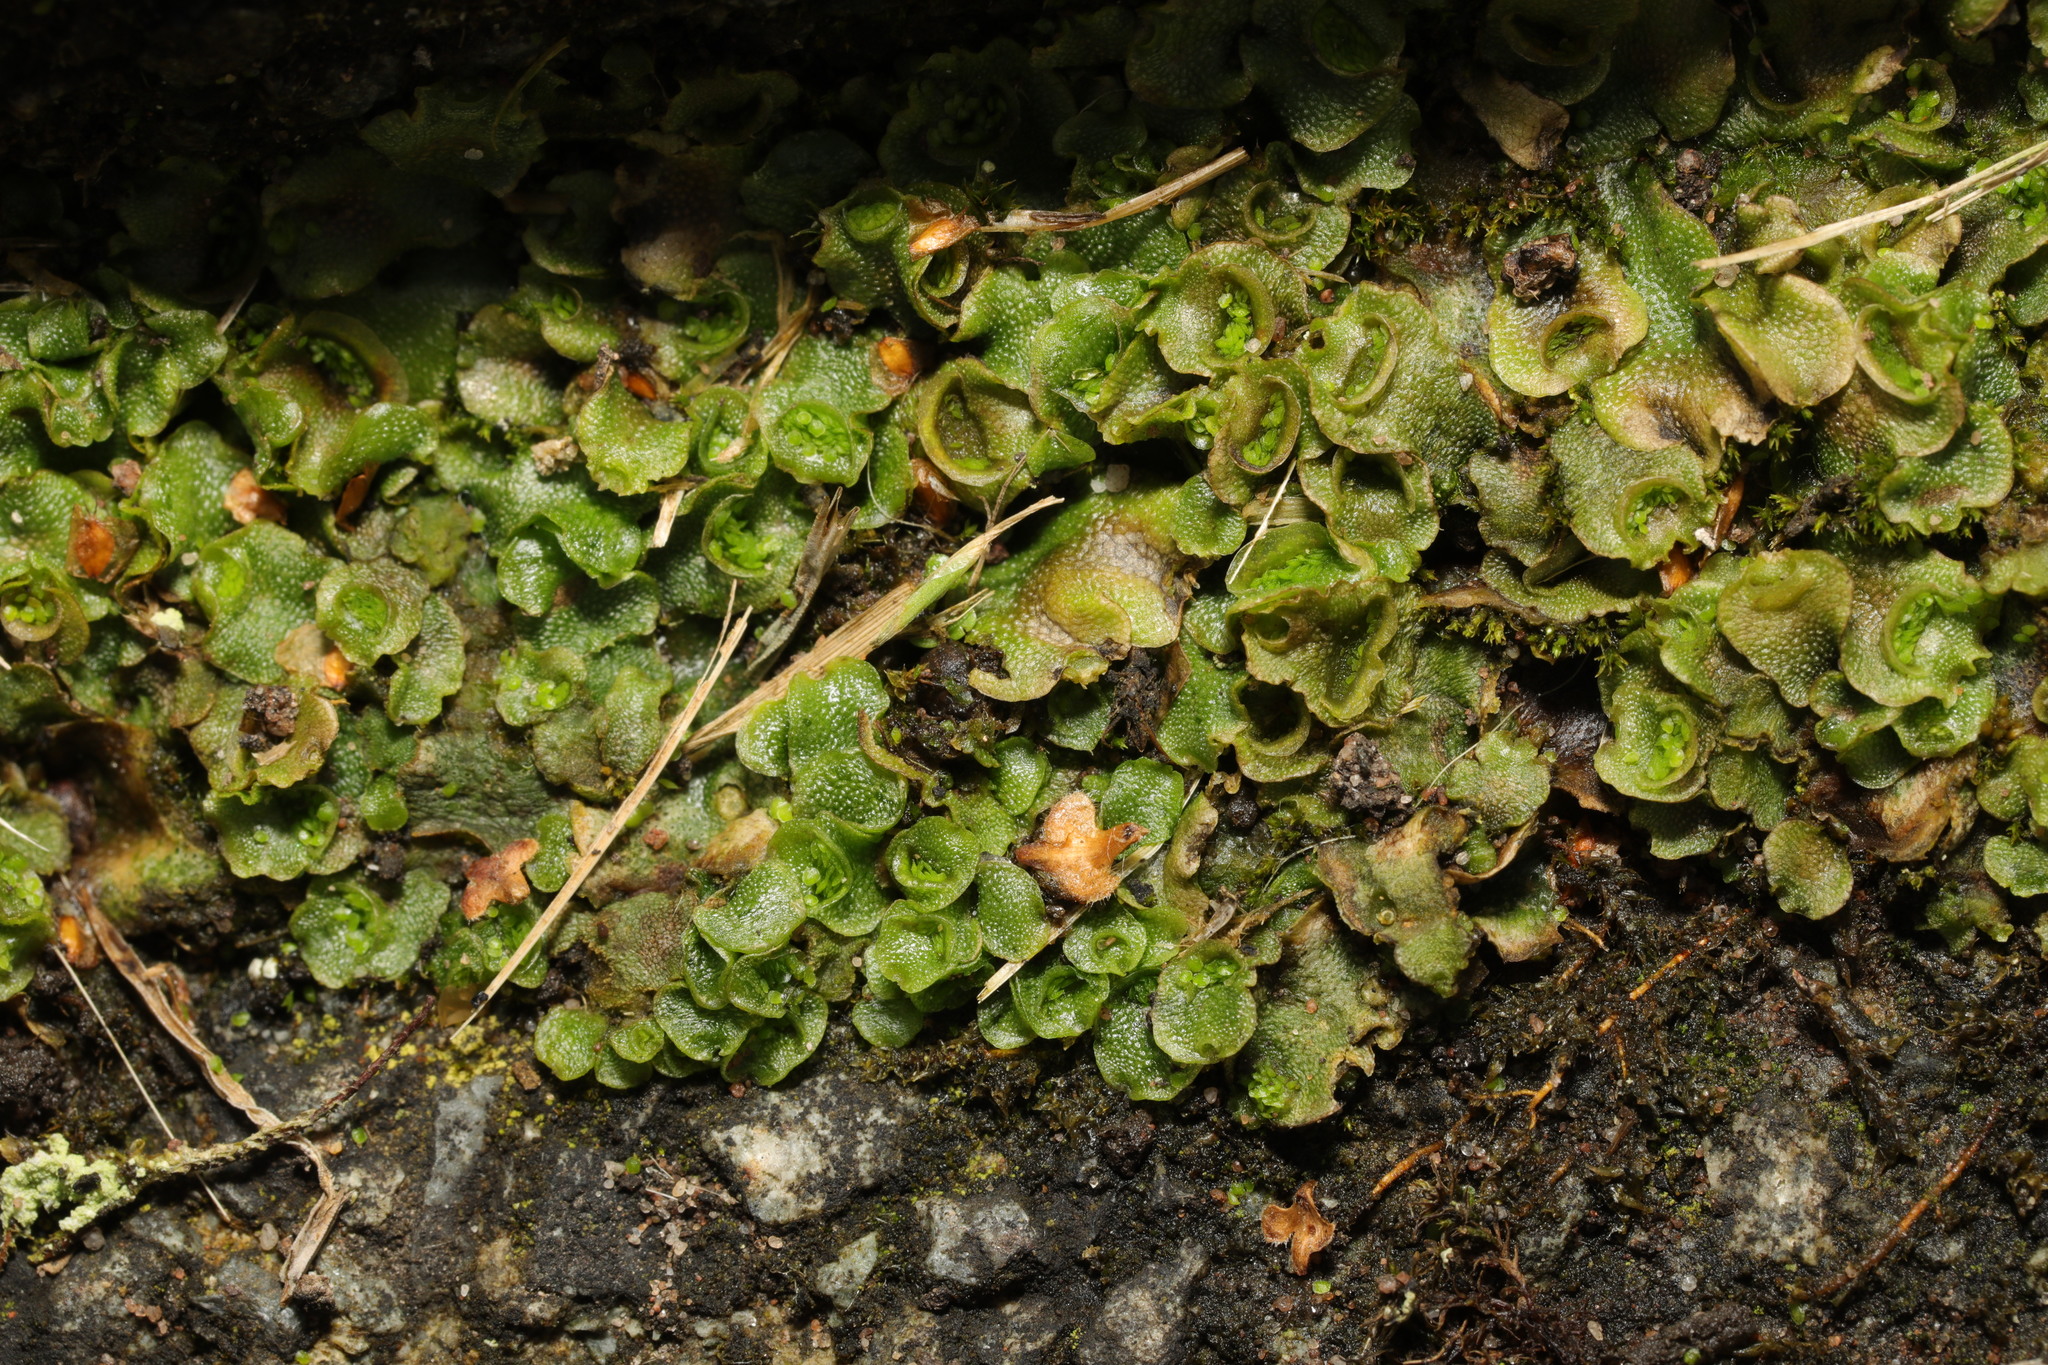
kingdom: Plantae
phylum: Marchantiophyta
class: Marchantiopsida
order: Lunulariales
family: Lunulariaceae
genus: Lunularia
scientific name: Lunularia cruciata
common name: Crescent-cup liverwort
